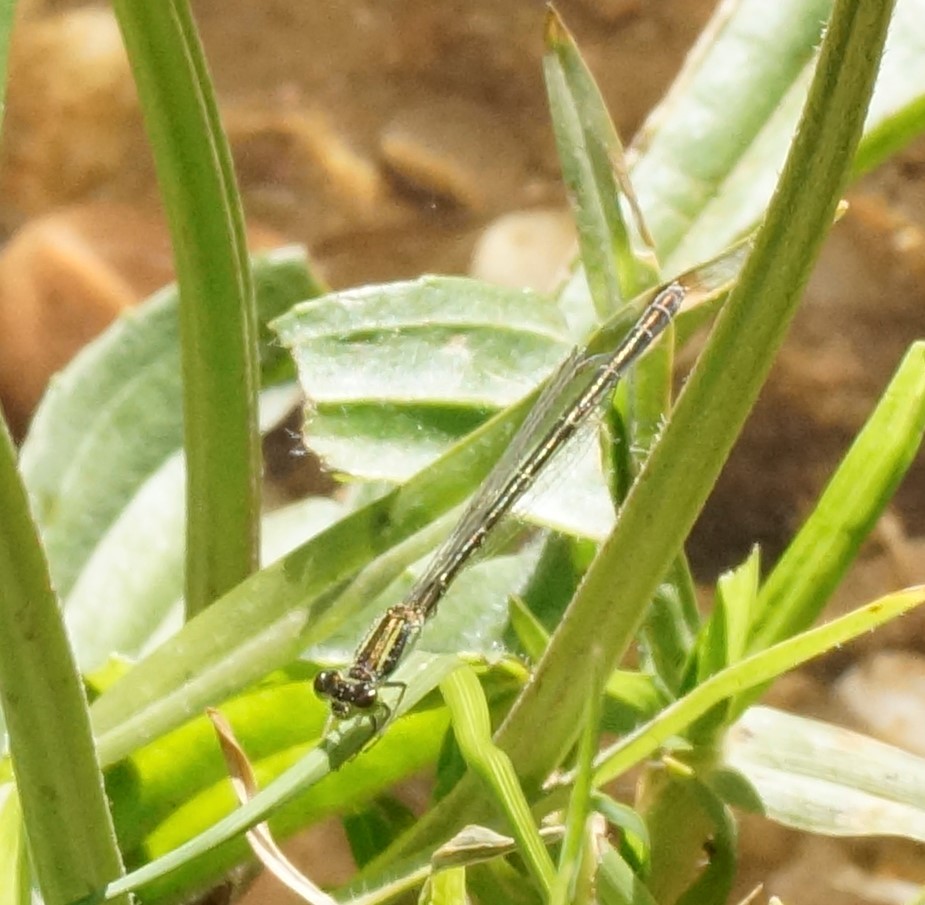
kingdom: Animalia
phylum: Arthropoda
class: Insecta
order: Odonata
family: Coenagrionidae
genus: Ischnura
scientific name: Ischnura aurora
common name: Gossamer damselfly
